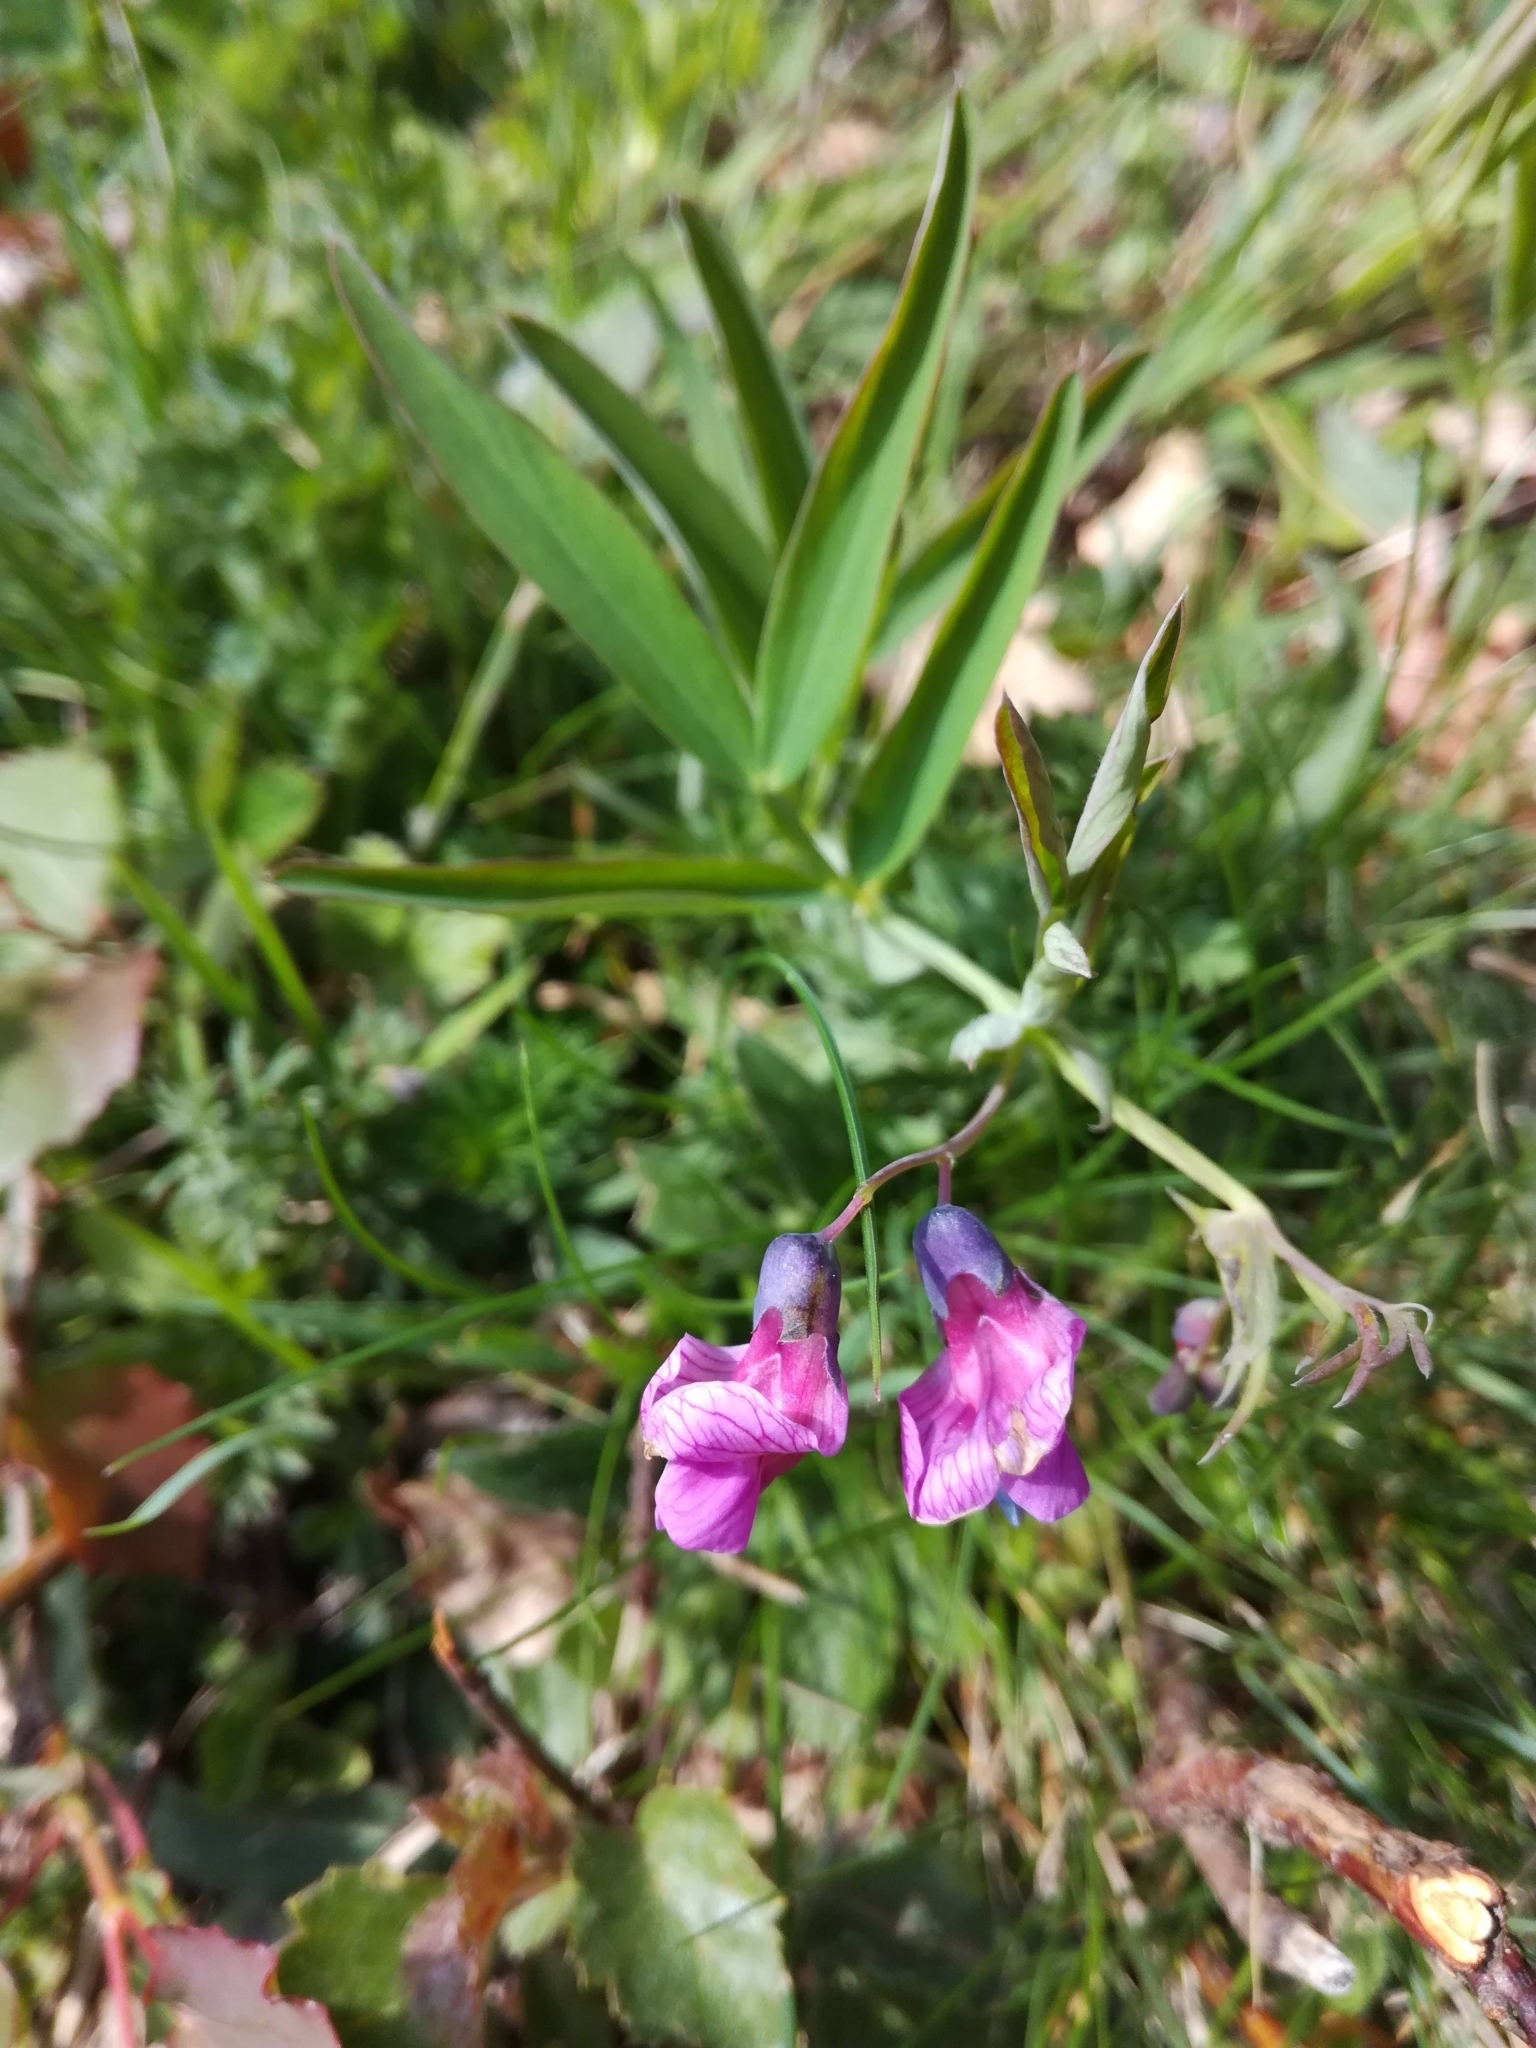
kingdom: Plantae
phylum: Tracheophyta
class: Magnoliopsida
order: Fabales
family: Fabaceae
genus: Lathyrus
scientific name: Lathyrus linifolius
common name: Bitter-vetch
